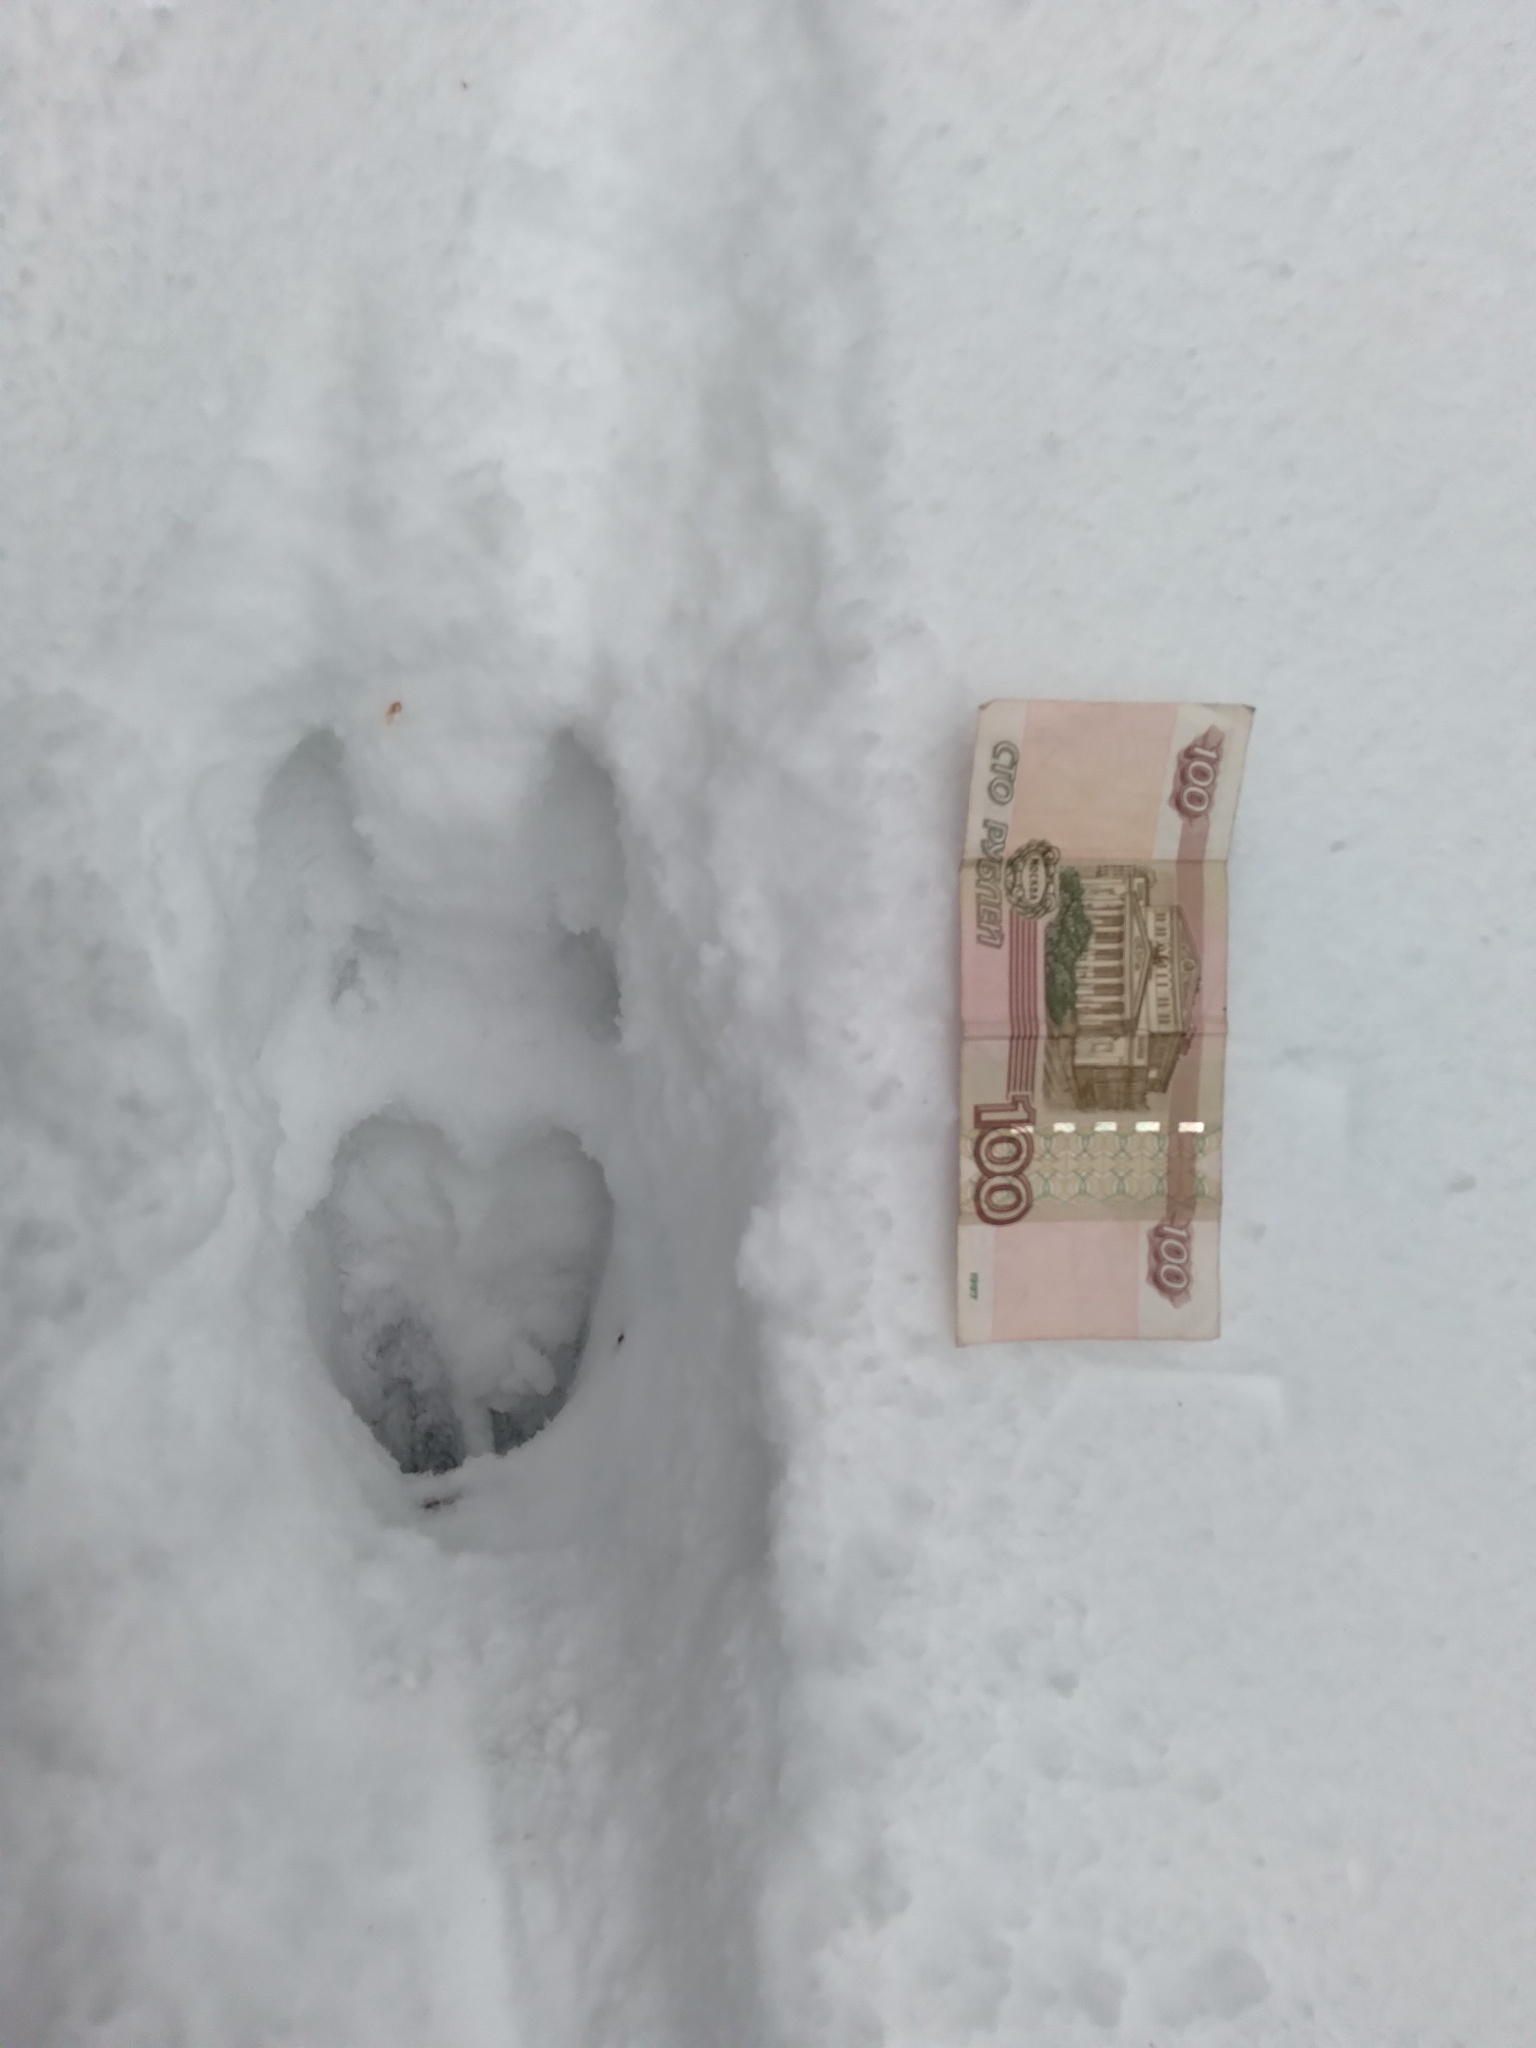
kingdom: Animalia
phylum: Chordata
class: Mammalia
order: Artiodactyla
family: Cervidae
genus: Alces
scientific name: Alces alces
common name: Moose
